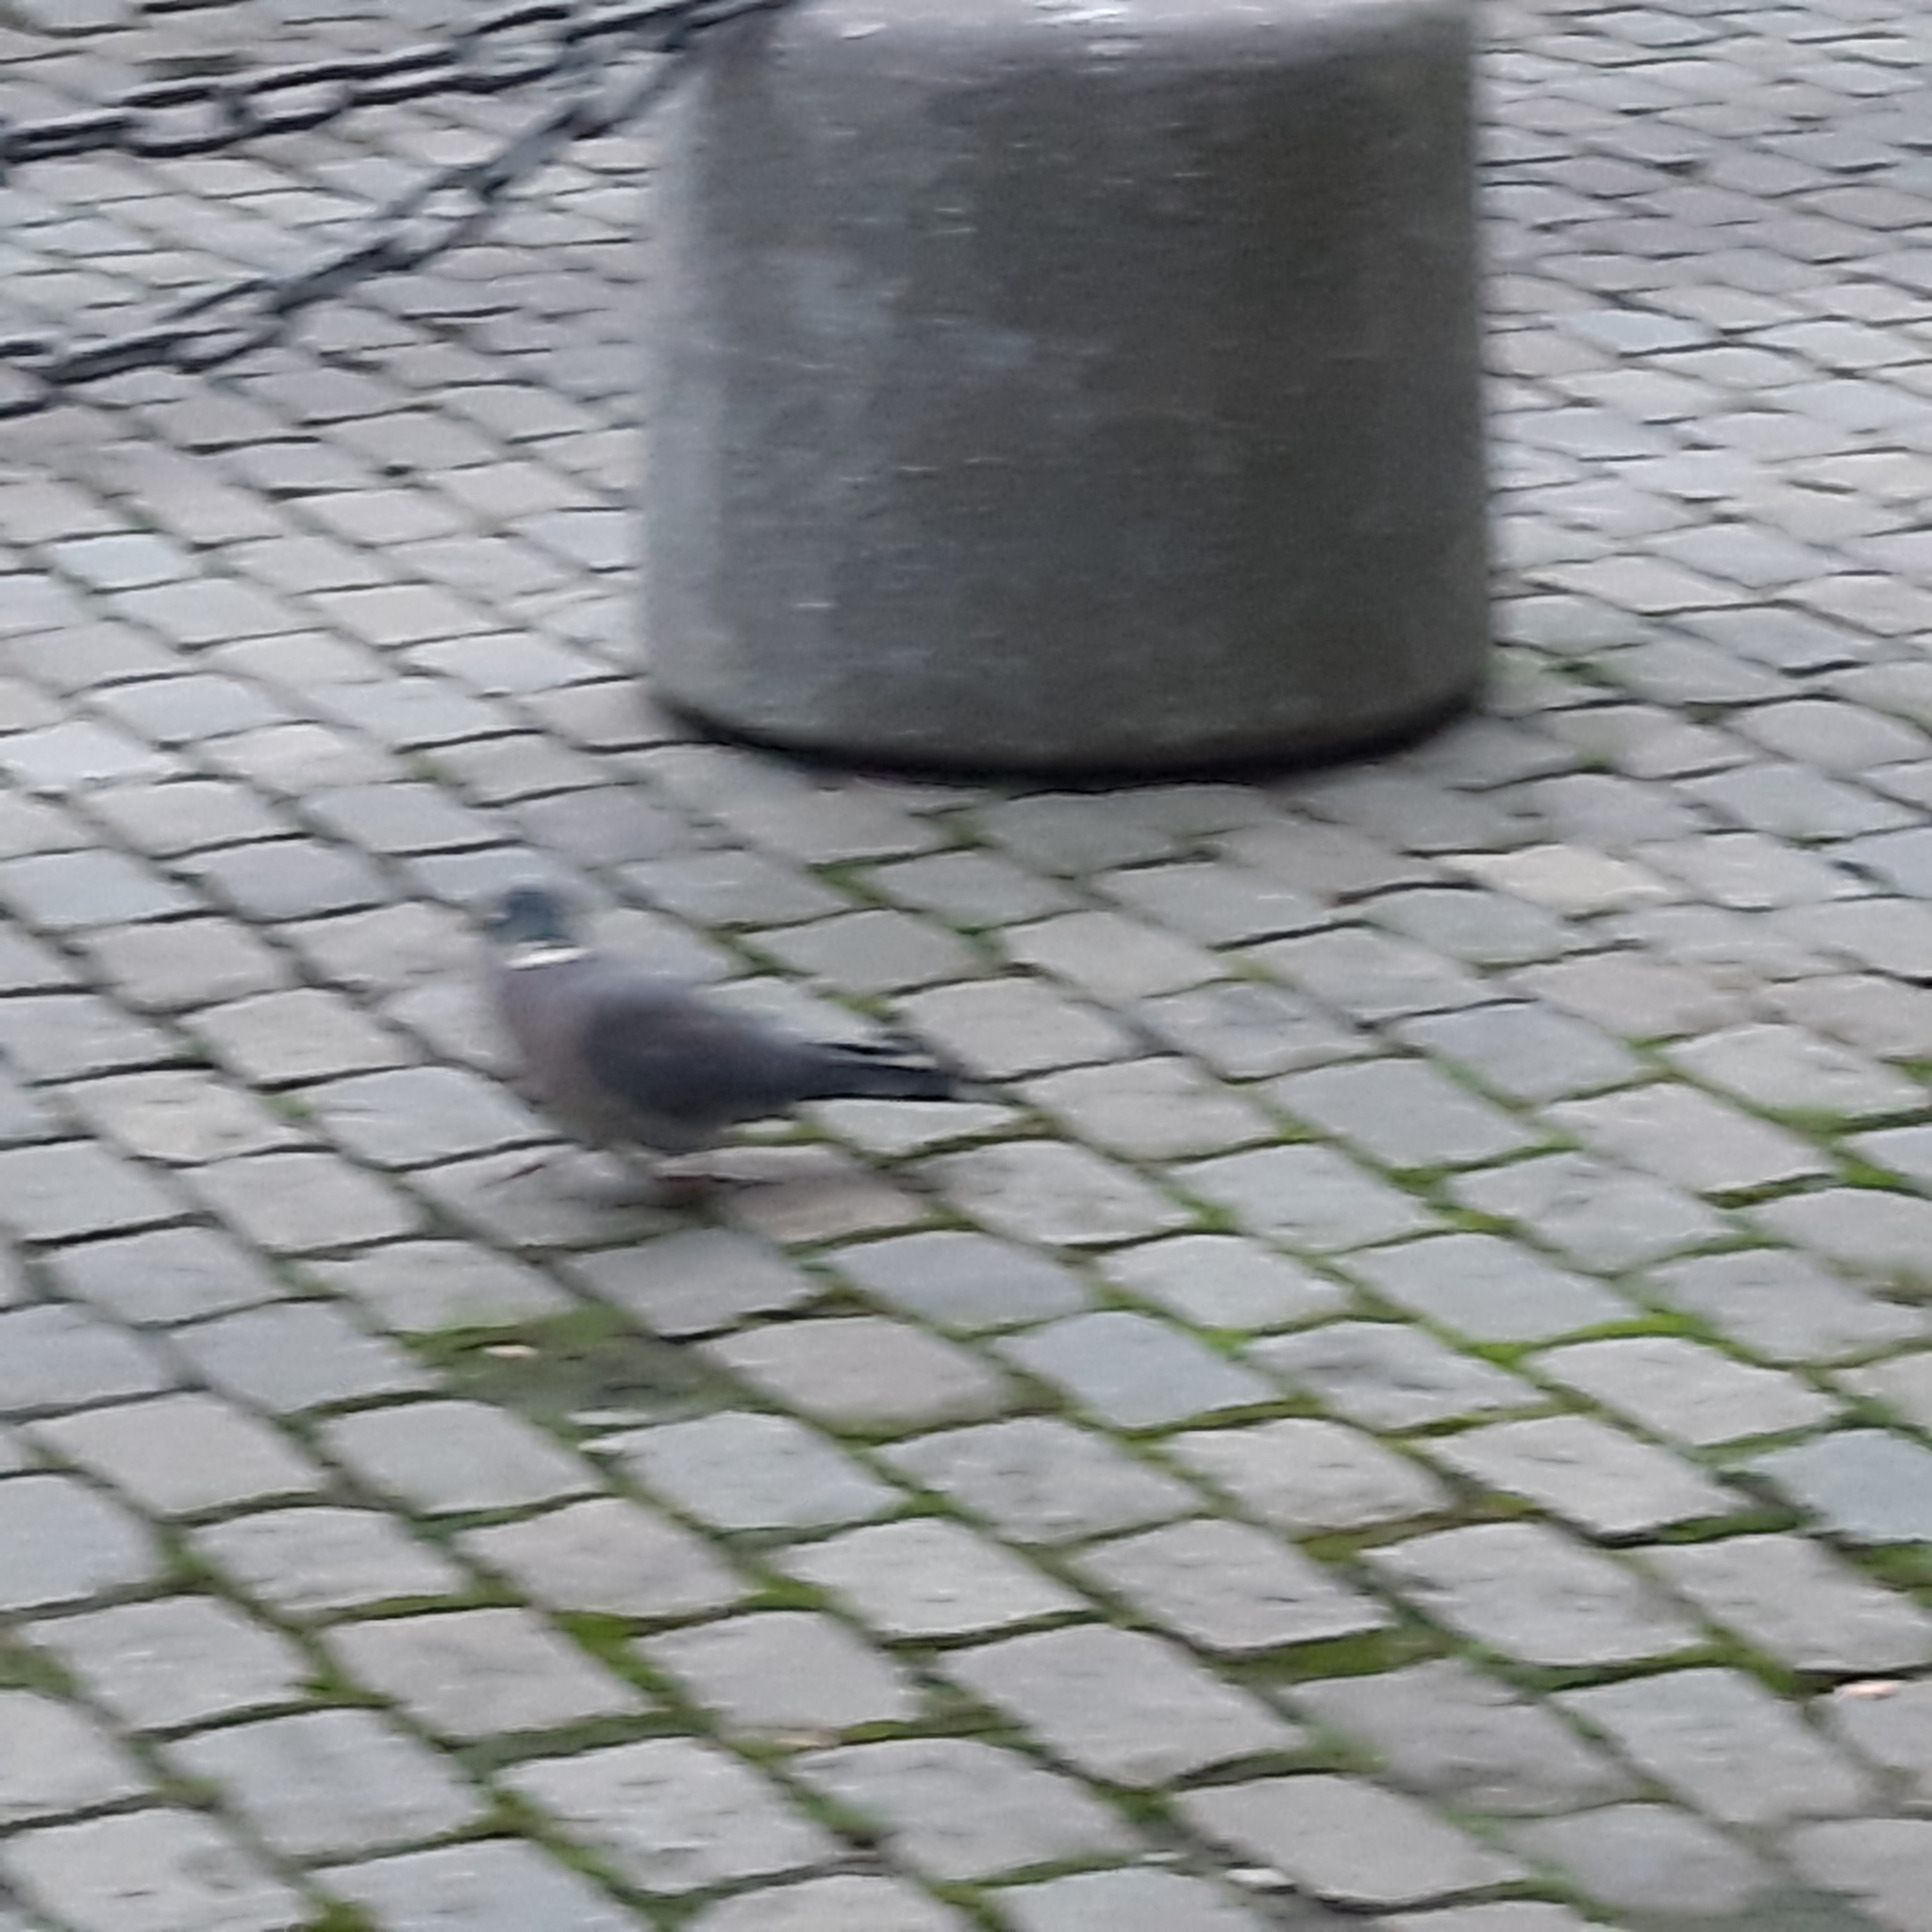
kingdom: Animalia
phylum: Chordata
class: Aves
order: Columbiformes
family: Columbidae
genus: Columba
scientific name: Columba palumbus
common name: Common wood pigeon
